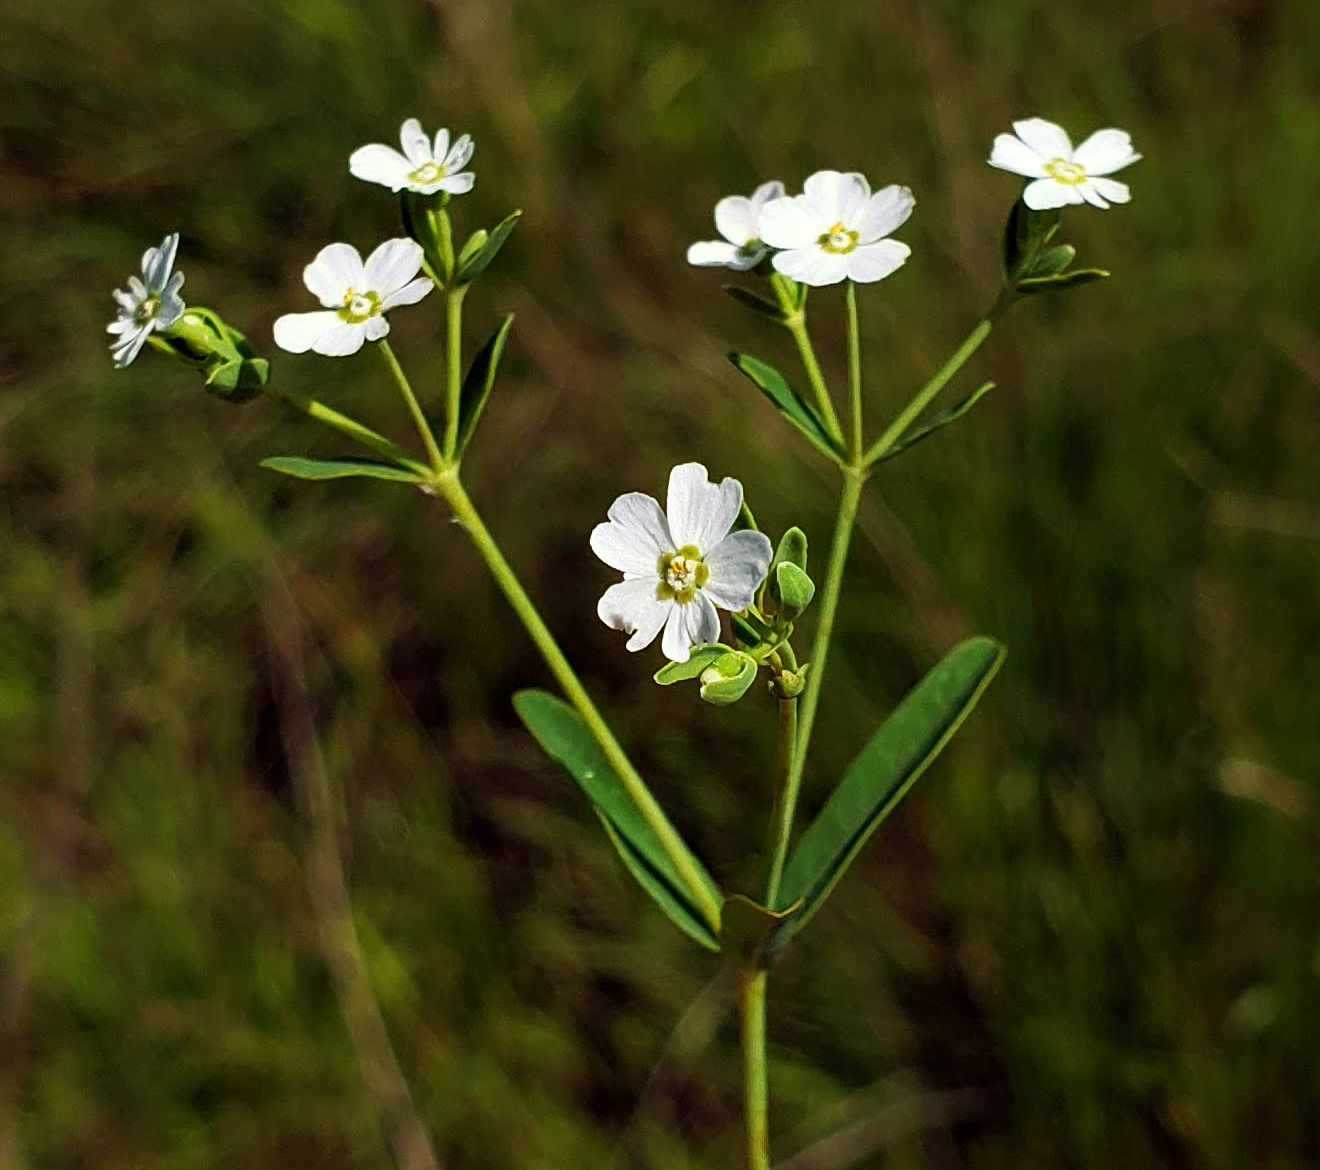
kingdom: Plantae
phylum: Tracheophyta
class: Magnoliopsida
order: Malpighiales
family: Euphorbiaceae
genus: Euphorbia
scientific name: Euphorbia corollata
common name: Flowering spurge
